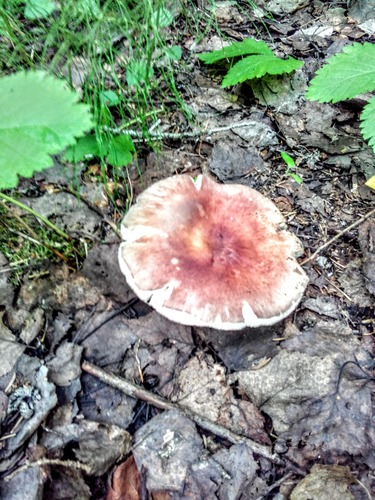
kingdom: Fungi
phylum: Basidiomycota
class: Agaricomycetes
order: Russulales
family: Russulaceae
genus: Russula
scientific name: Russula
